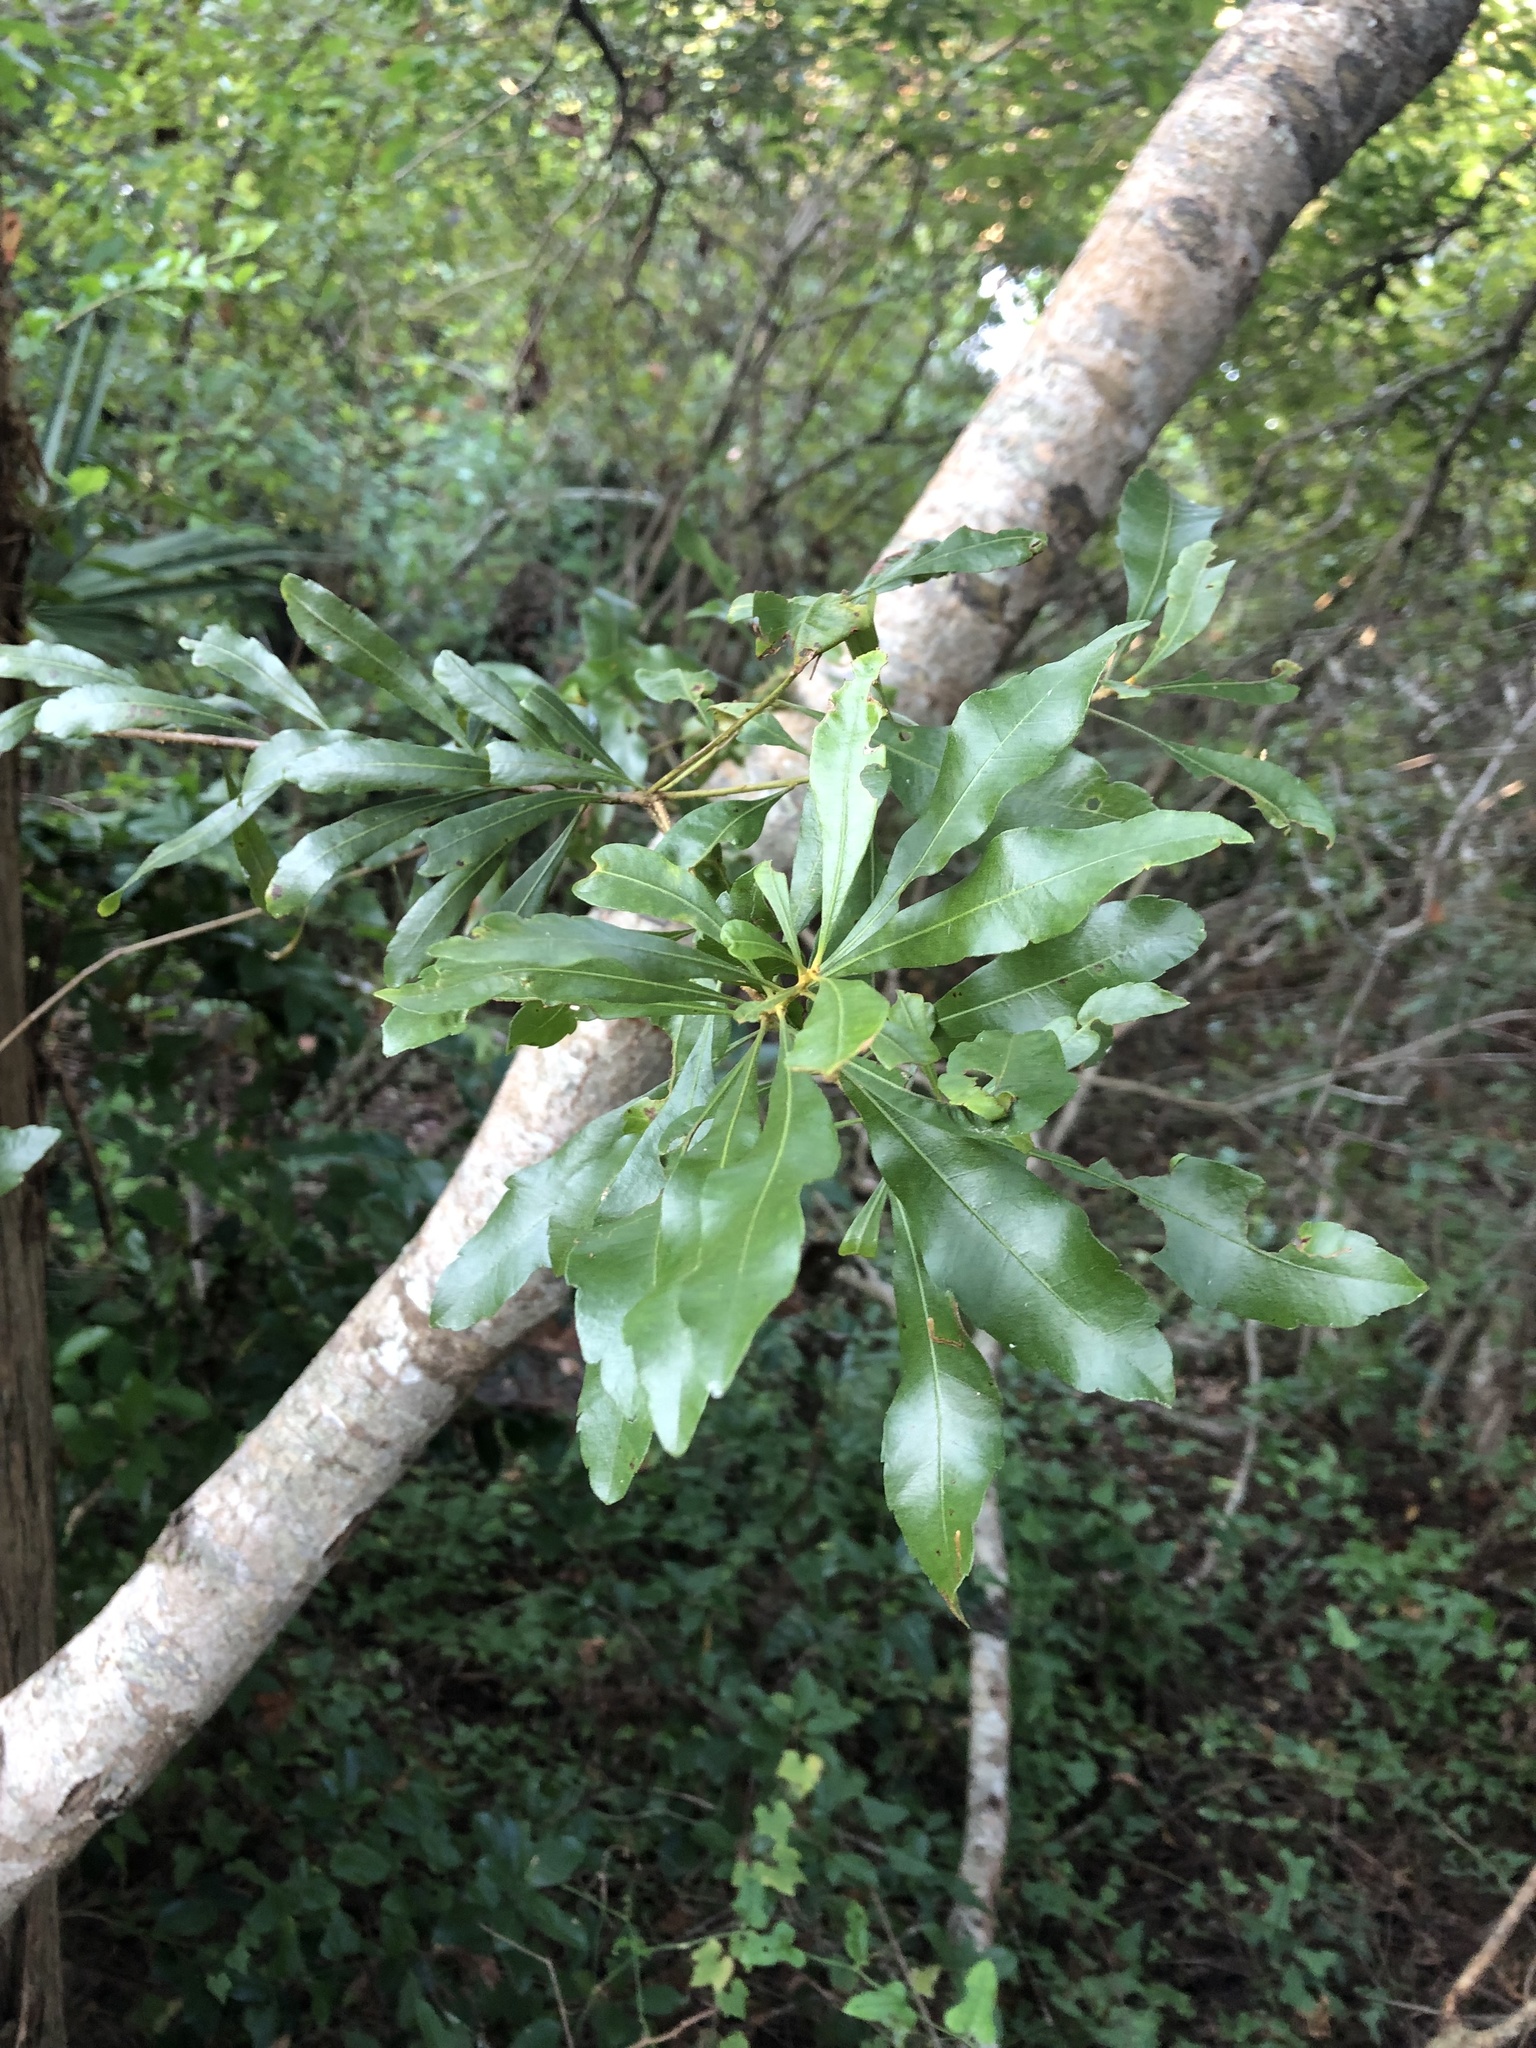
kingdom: Plantae
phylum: Tracheophyta
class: Magnoliopsida
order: Fagales
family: Myricaceae
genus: Morella
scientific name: Morella cerifera
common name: Wax myrtle
